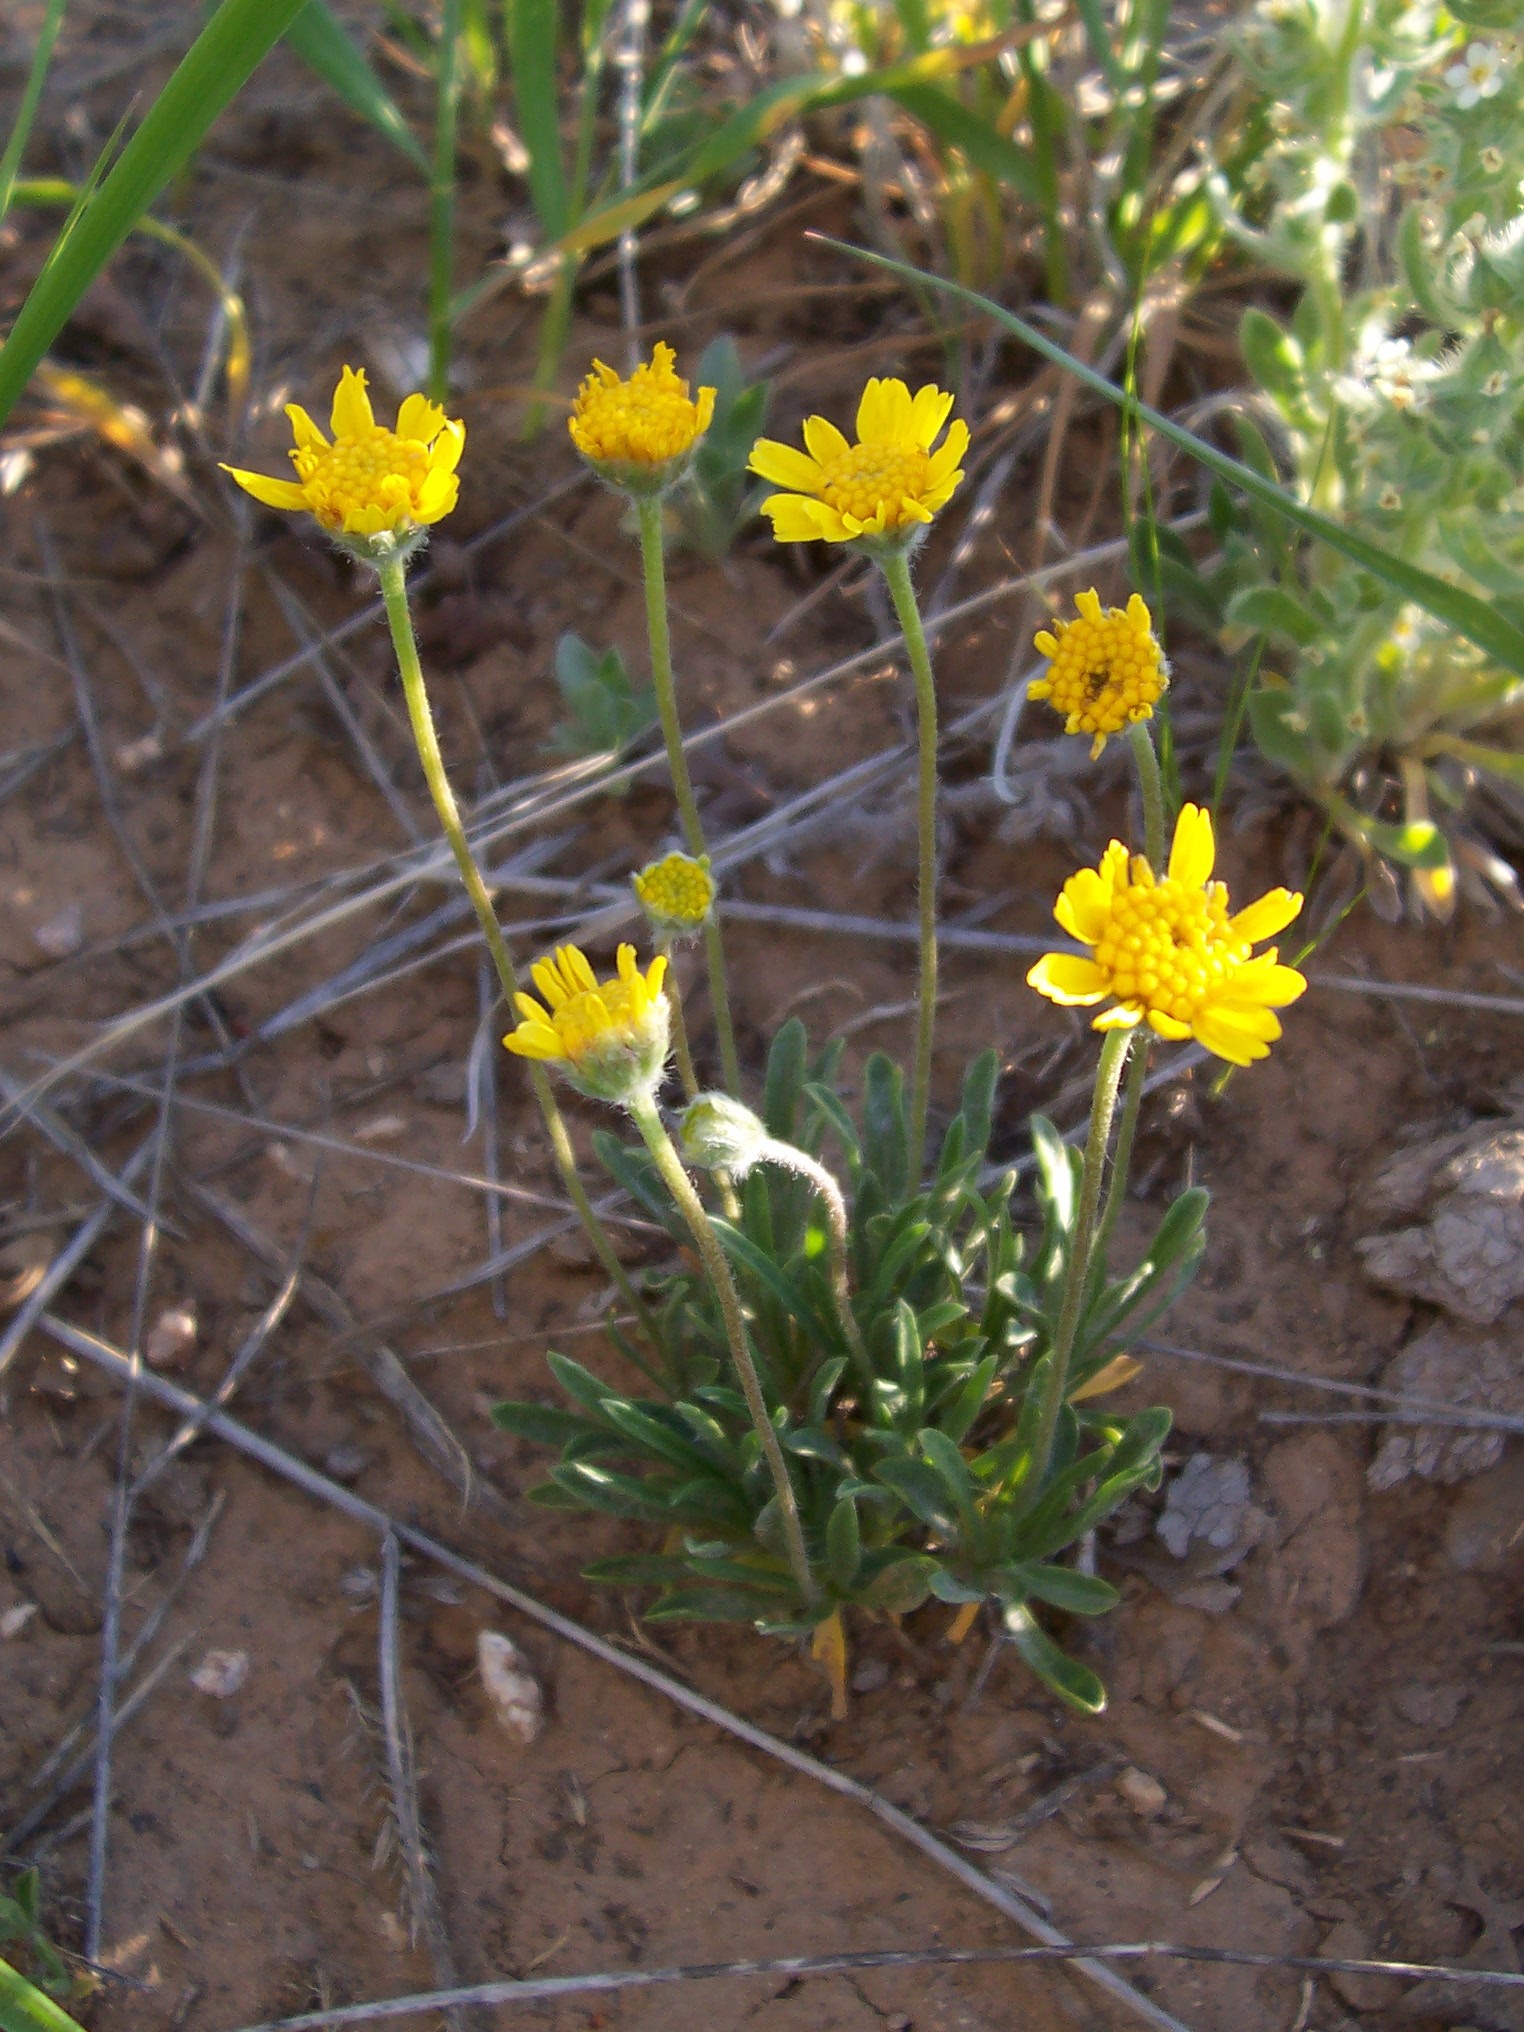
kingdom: Plantae
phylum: Tracheophyta
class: Magnoliopsida
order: Asterales
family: Asteraceae
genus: Tetraneuris
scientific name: Tetraneuris acaulis
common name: Butte marigold
